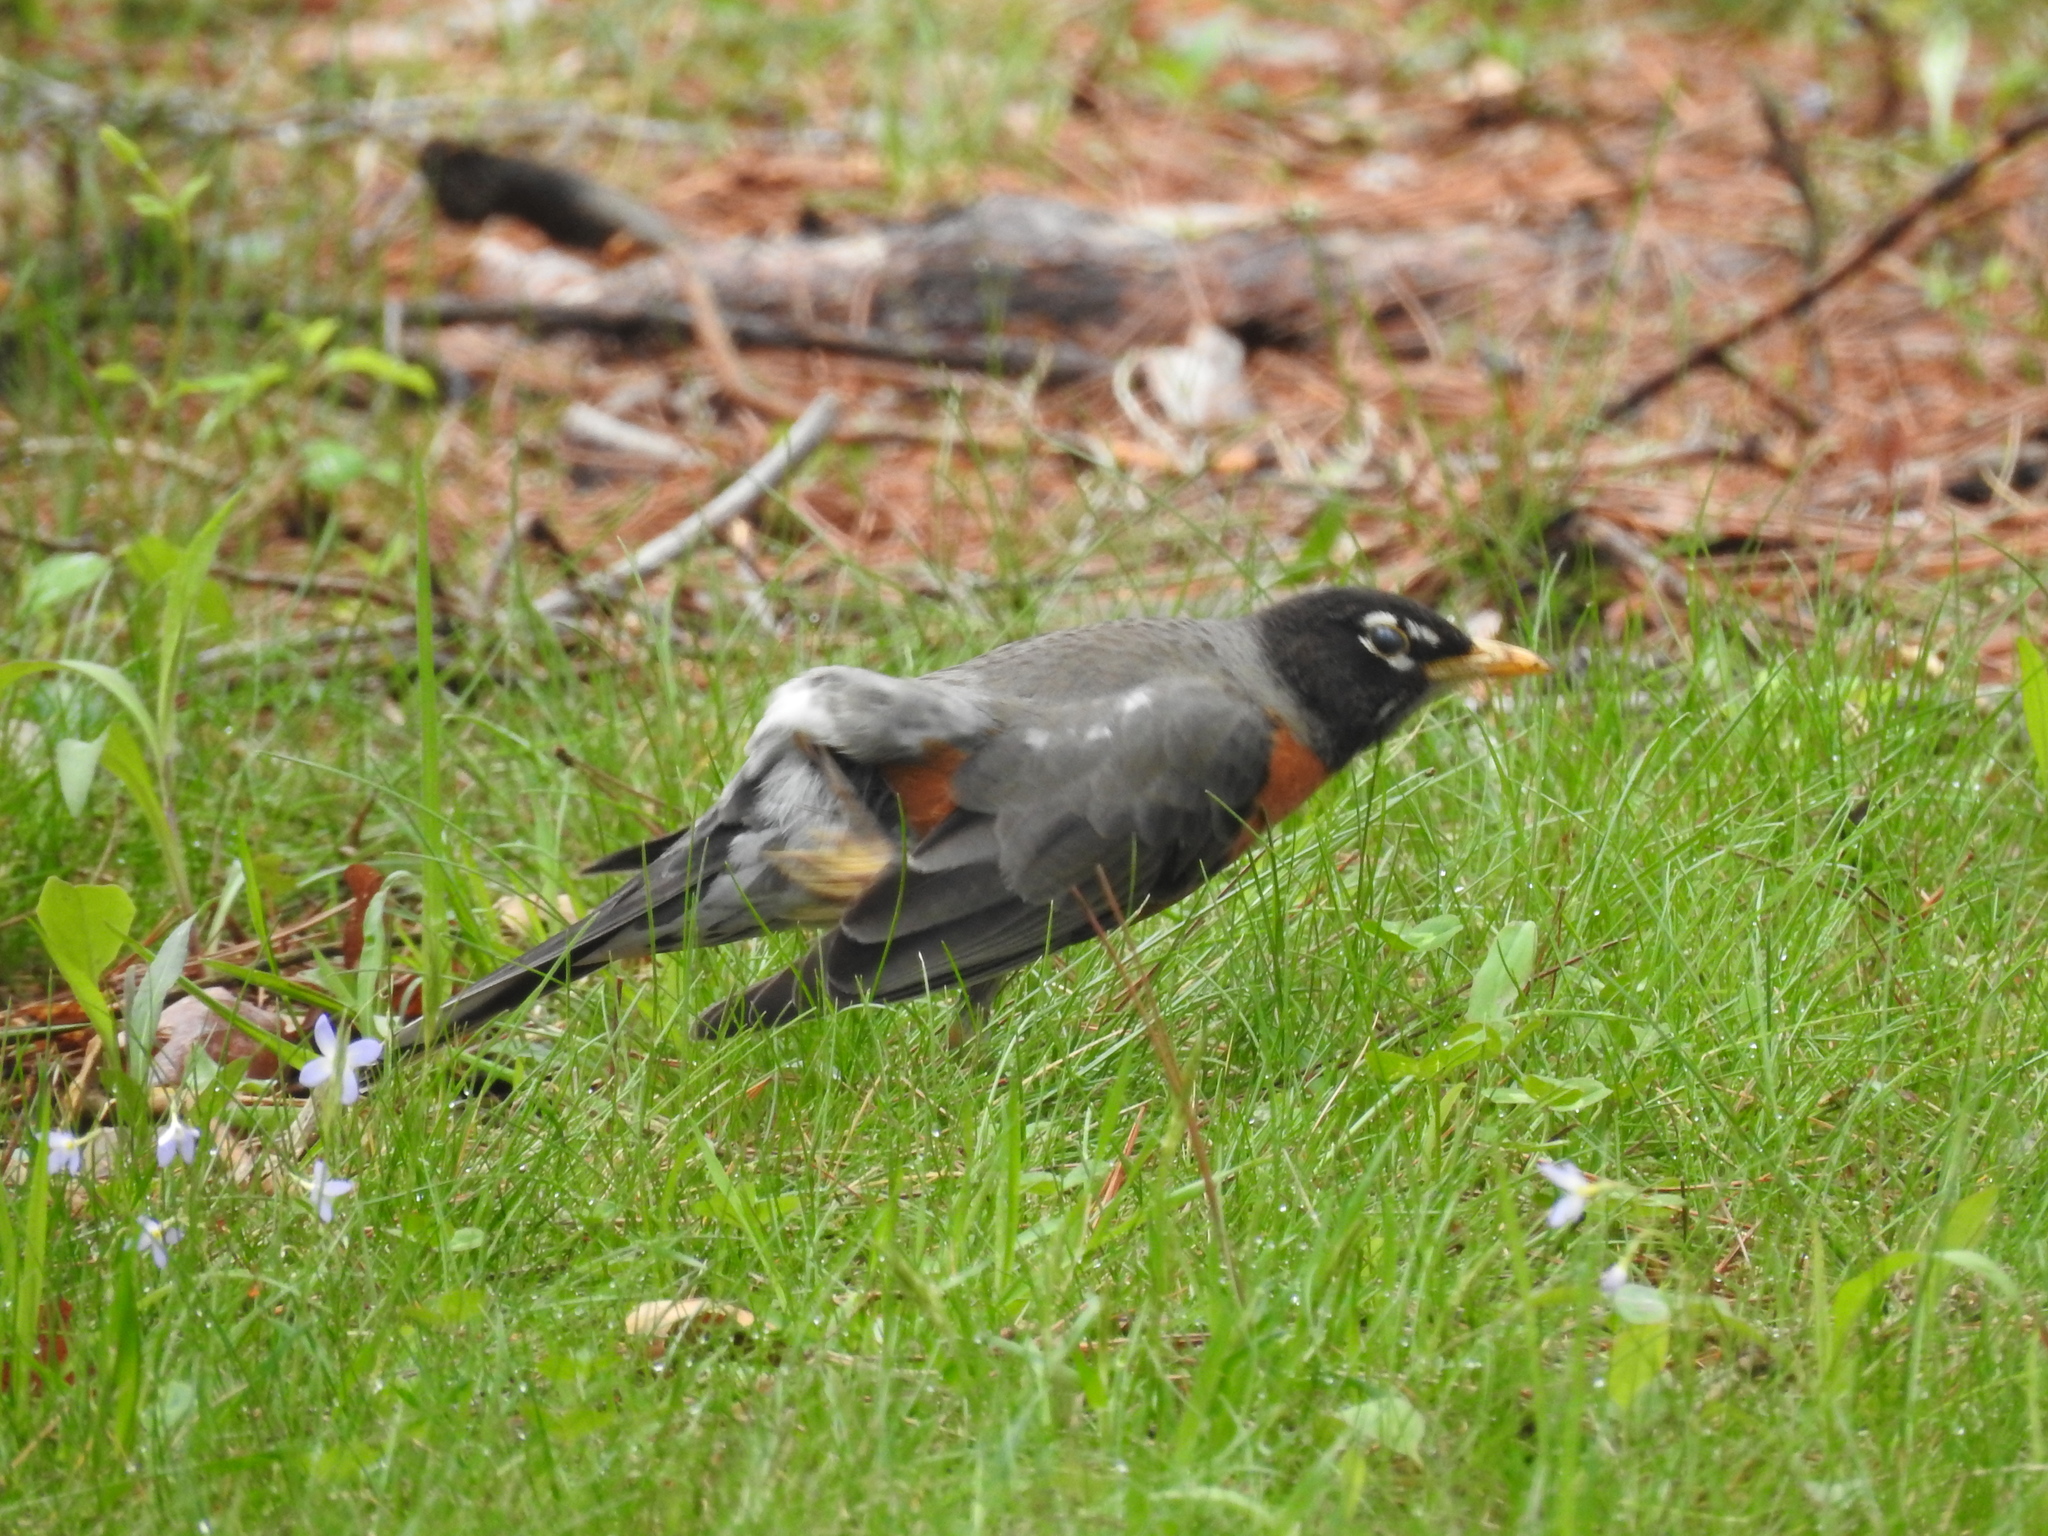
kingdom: Animalia
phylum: Chordata
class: Aves
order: Passeriformes
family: Turdidae
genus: Turdus
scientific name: Turdus migratorius
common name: American robin
